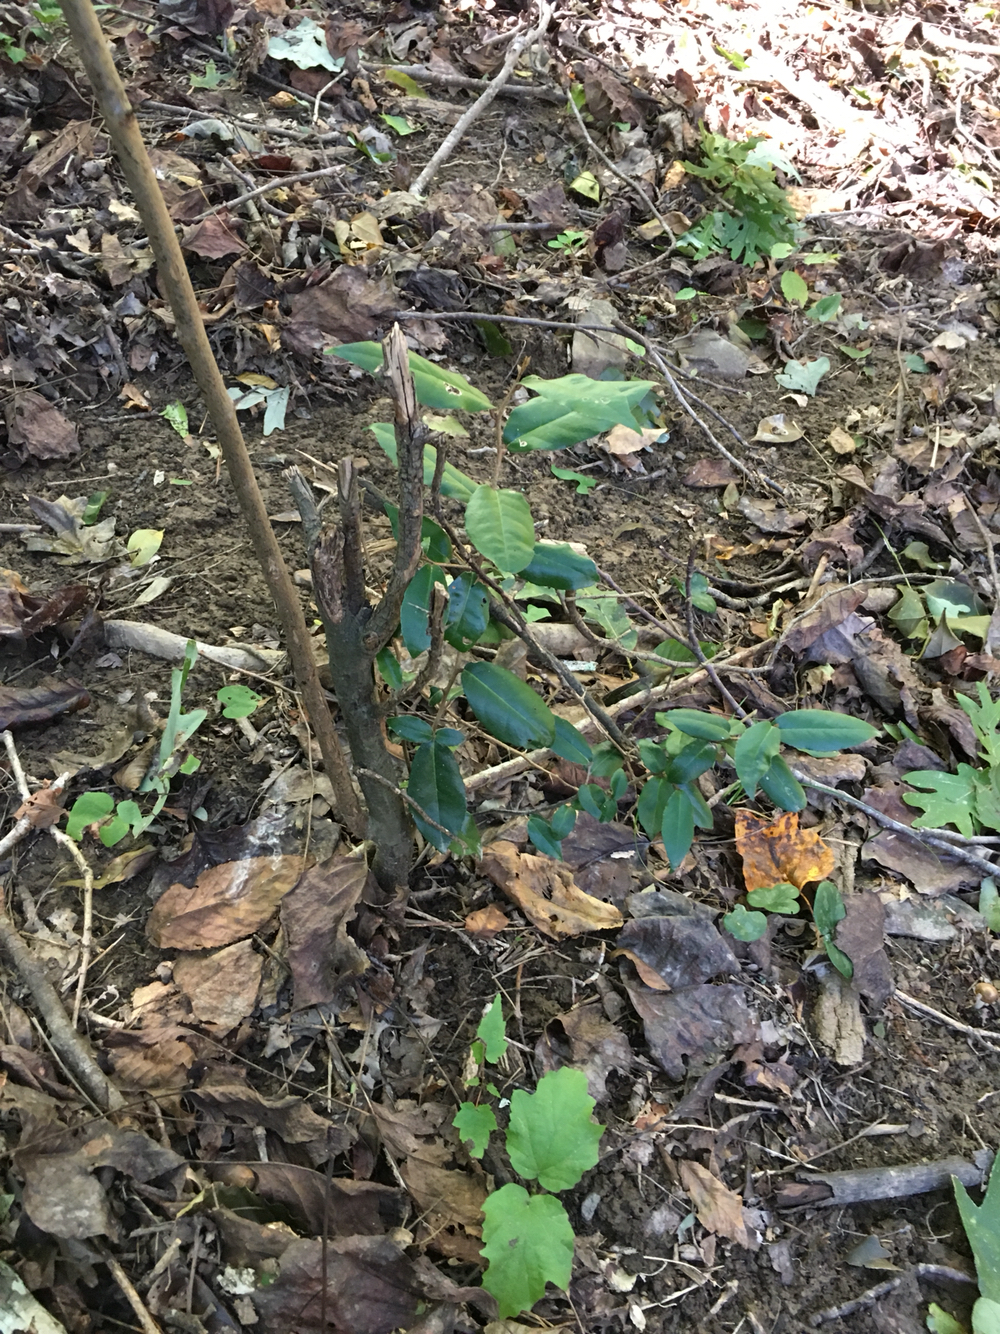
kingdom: Plantae
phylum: Tracheophyta
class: Magnoliopsida
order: Rosales
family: Elaeagnaceae
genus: Elaeagnus
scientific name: Elaeagnus pungens
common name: Spiny oleaster
